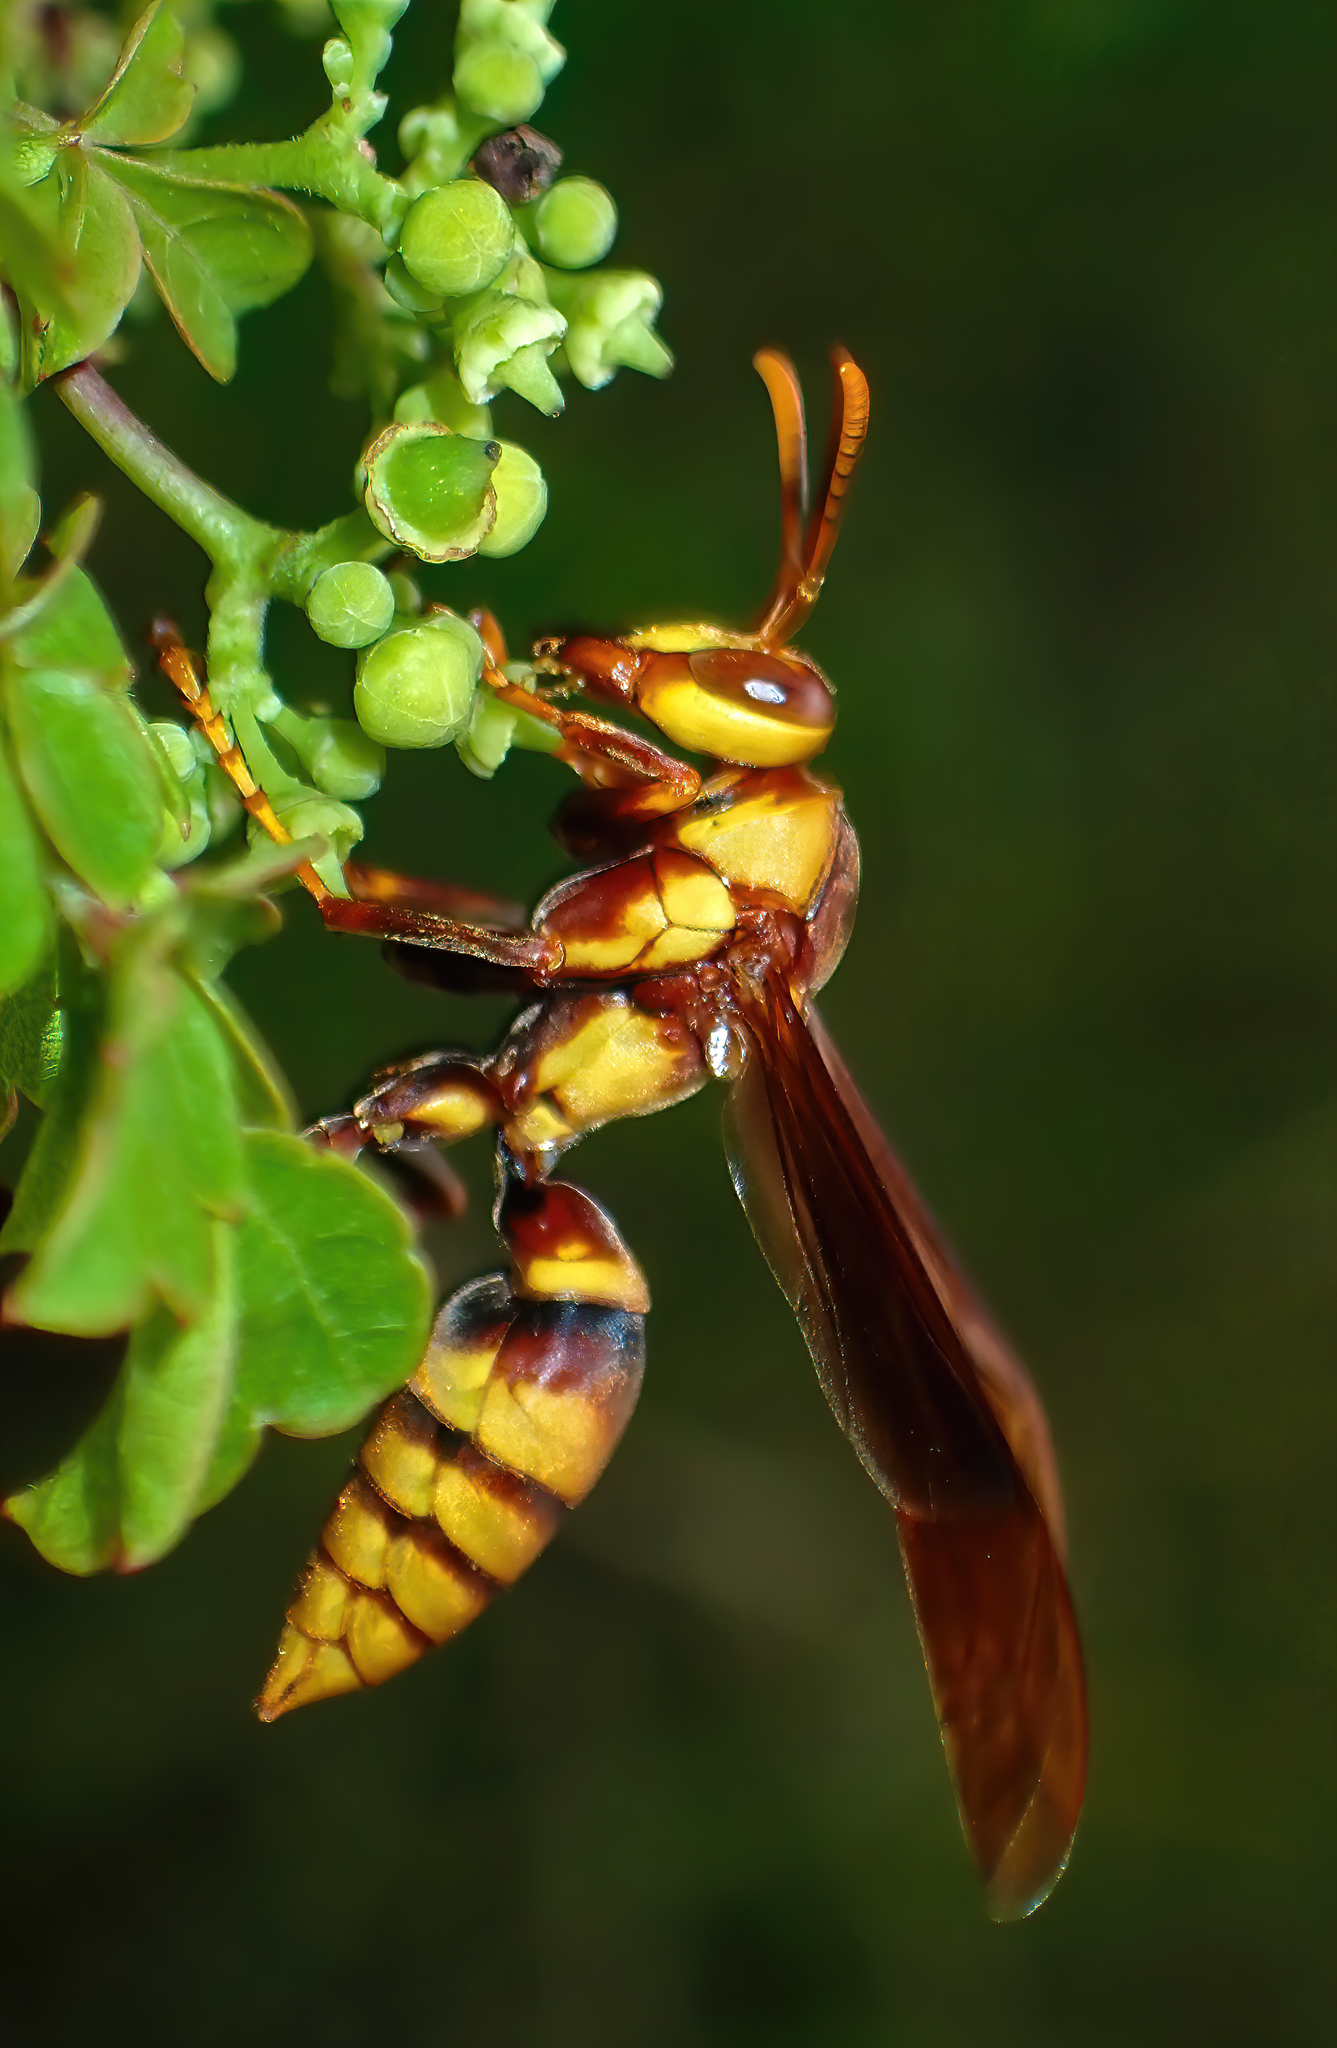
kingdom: Animalia
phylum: Arthropoda
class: Insecta
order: Hymenoptera
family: Eumenidae
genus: Polistes
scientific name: Polistes major
